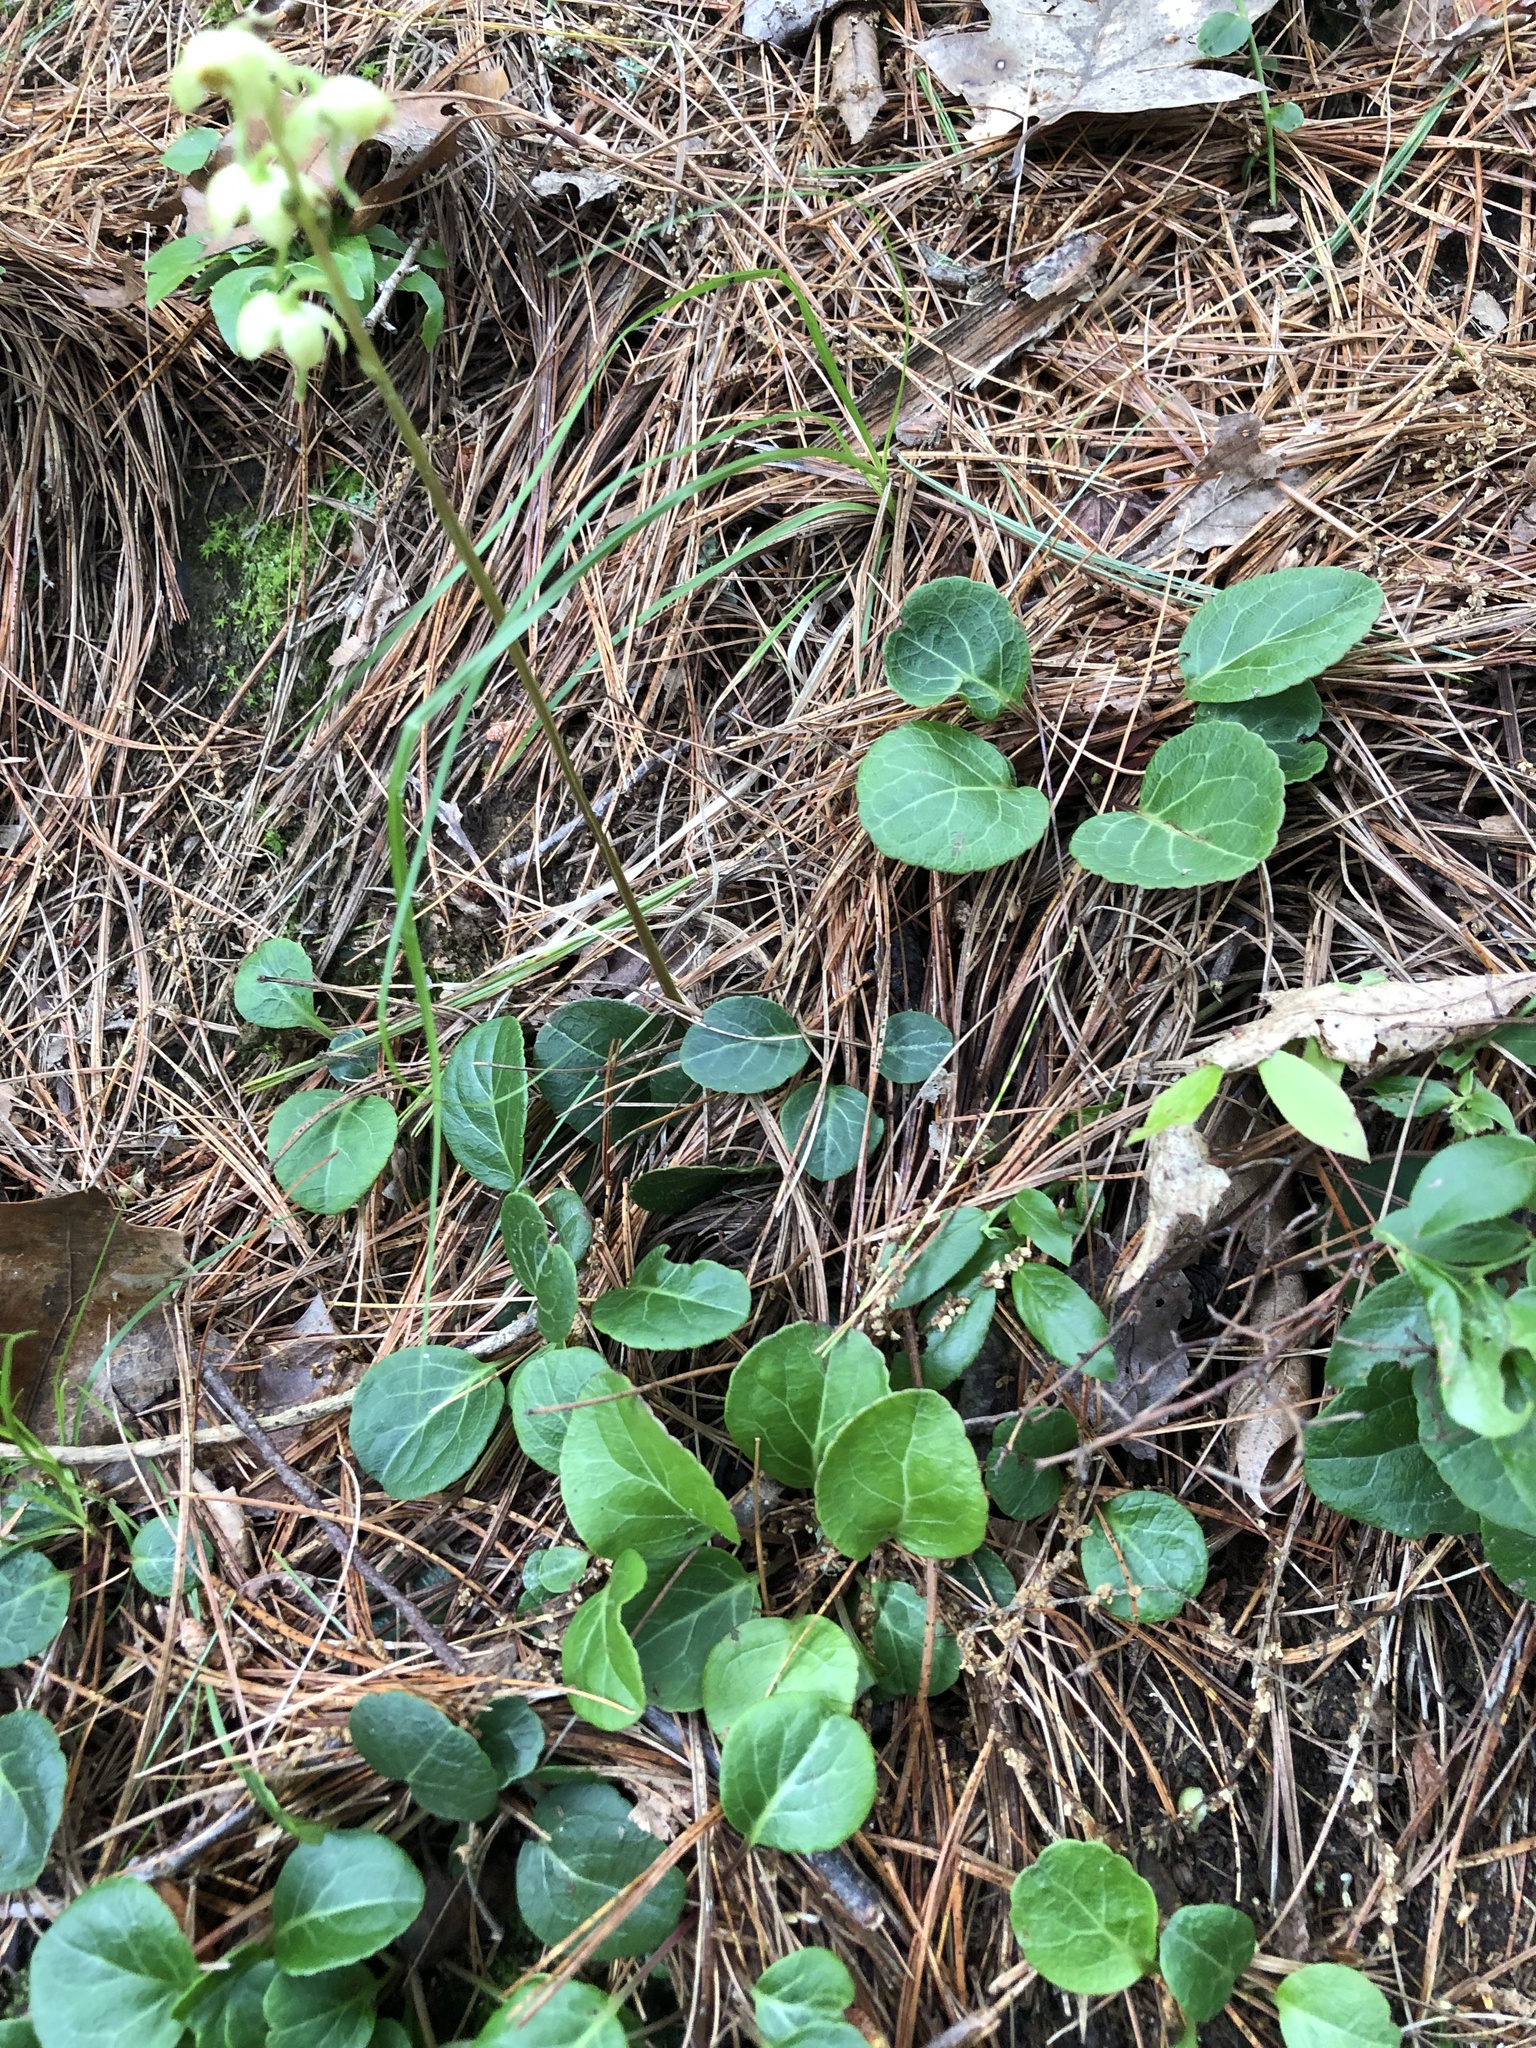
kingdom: Plantae
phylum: Tracheophyta
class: Magnoliopsida
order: Ericales
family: Ericaceae
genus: Pyrola
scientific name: Pyrola chlorantha
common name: Green wintergreen
